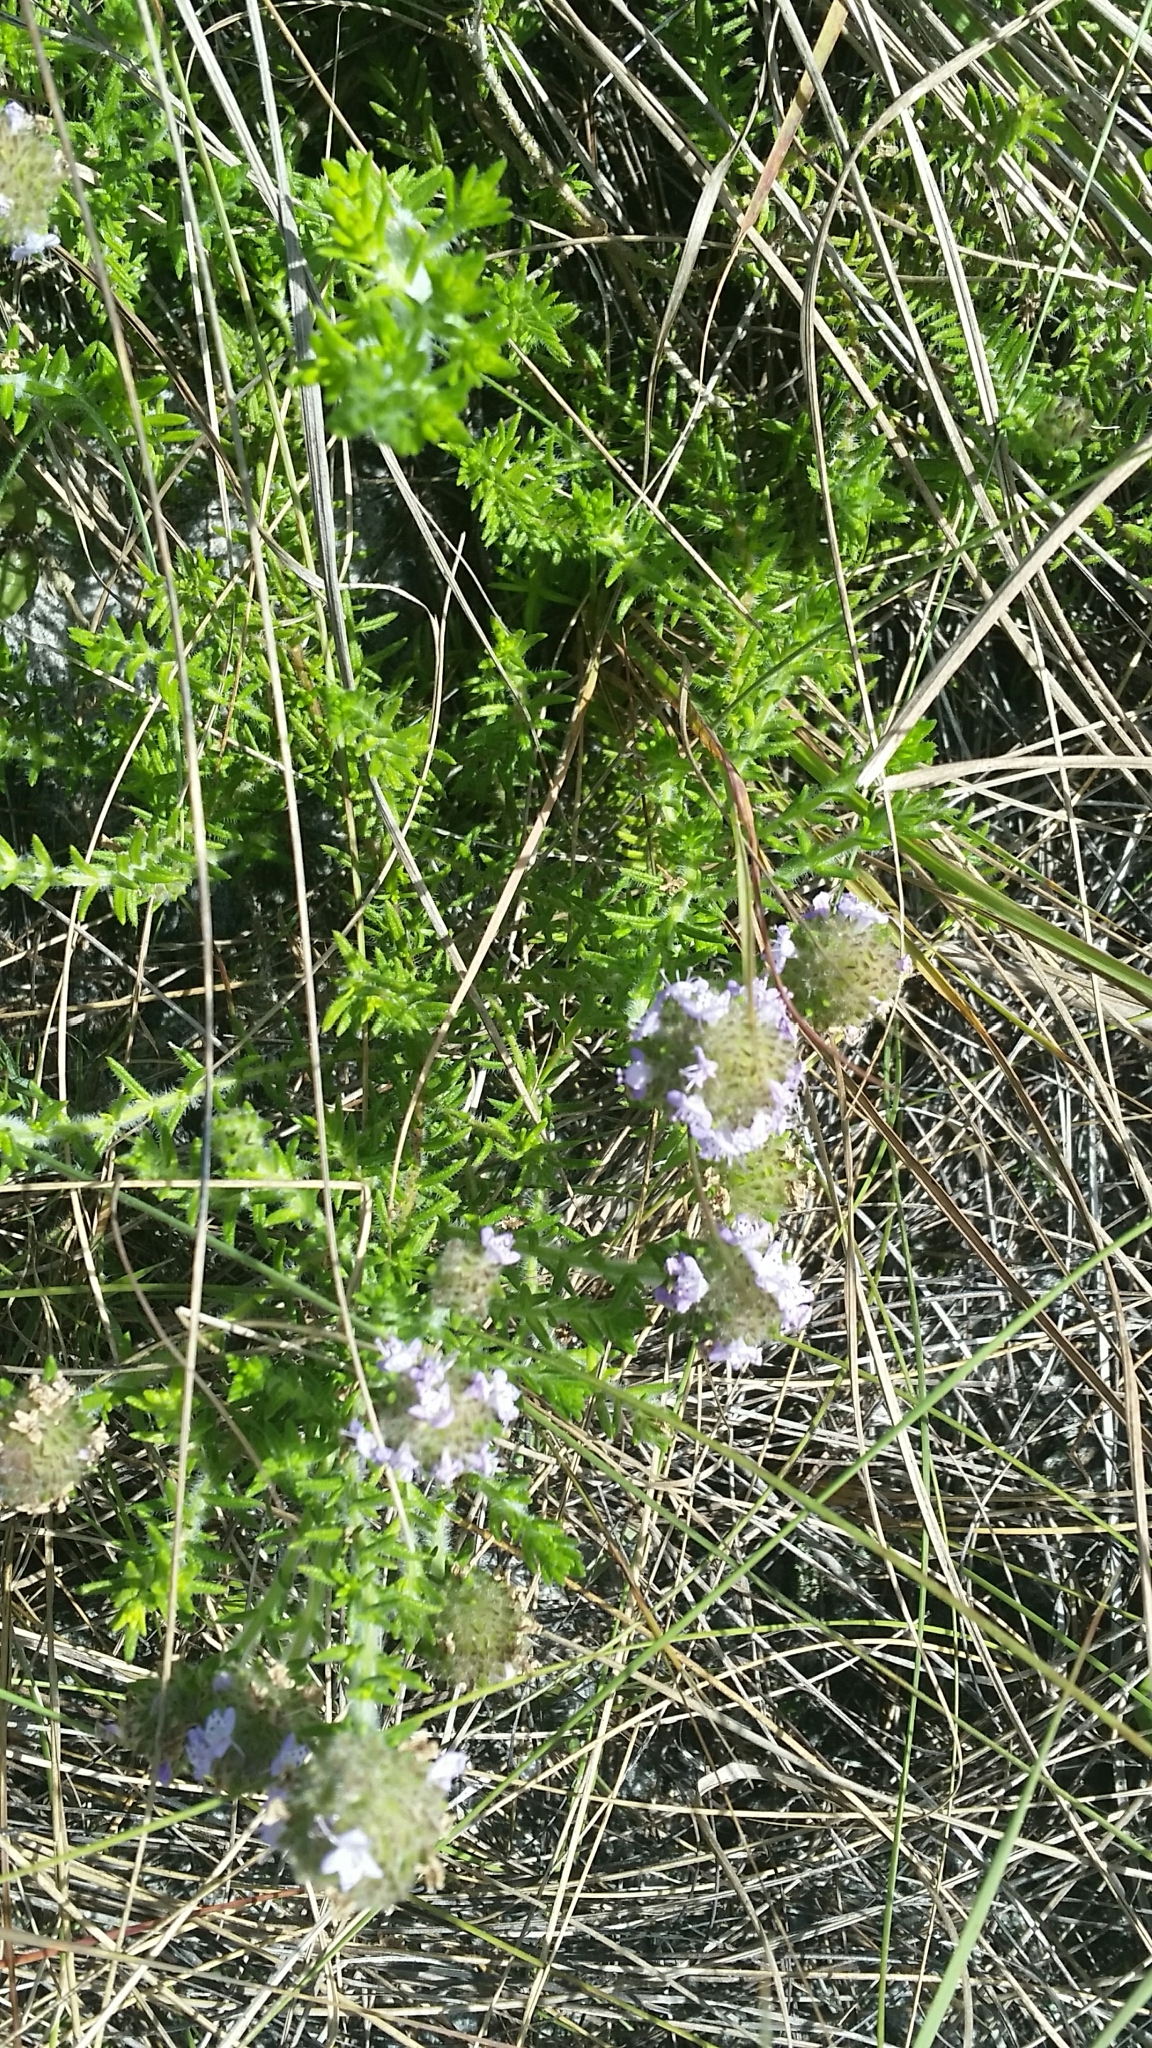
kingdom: Plantae
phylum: Tracheophyta
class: Magnoliopsida
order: Lamiales
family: Lamiaceae
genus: Piloblephis
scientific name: Piloblephis rigida
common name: Wild pennyroyal
